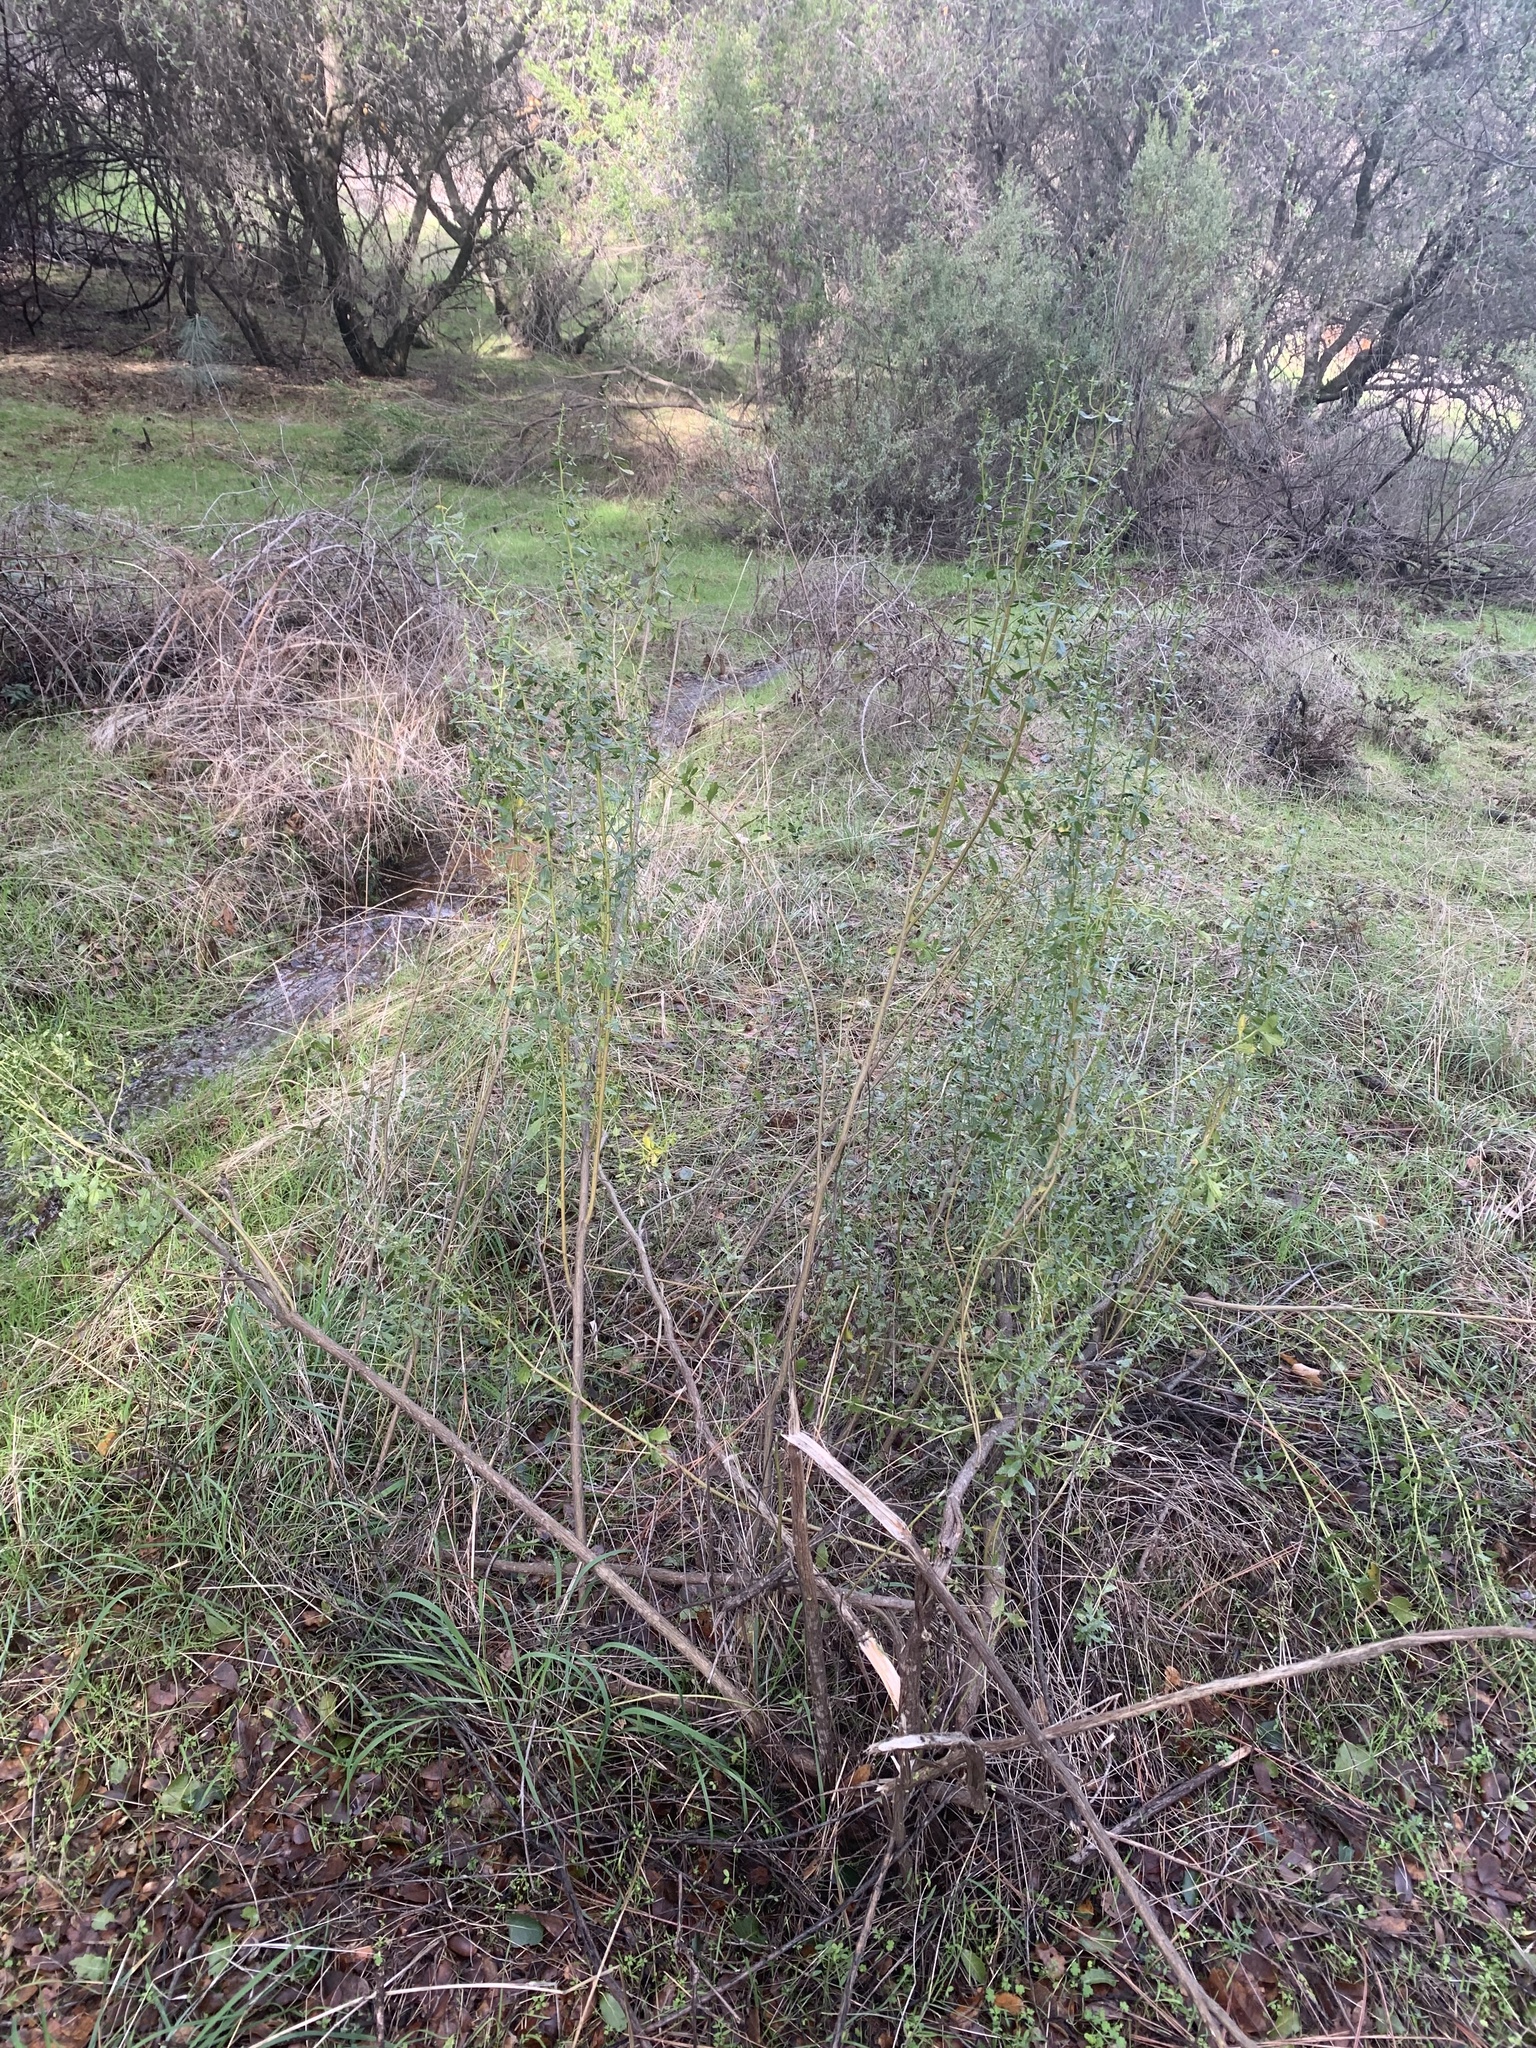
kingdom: Plantae
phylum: Tracheophyta
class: Magnoliopsida
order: Asterales
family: Asteraceae
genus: Baccharis
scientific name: Baccharis pilularis
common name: Coyotebrush
